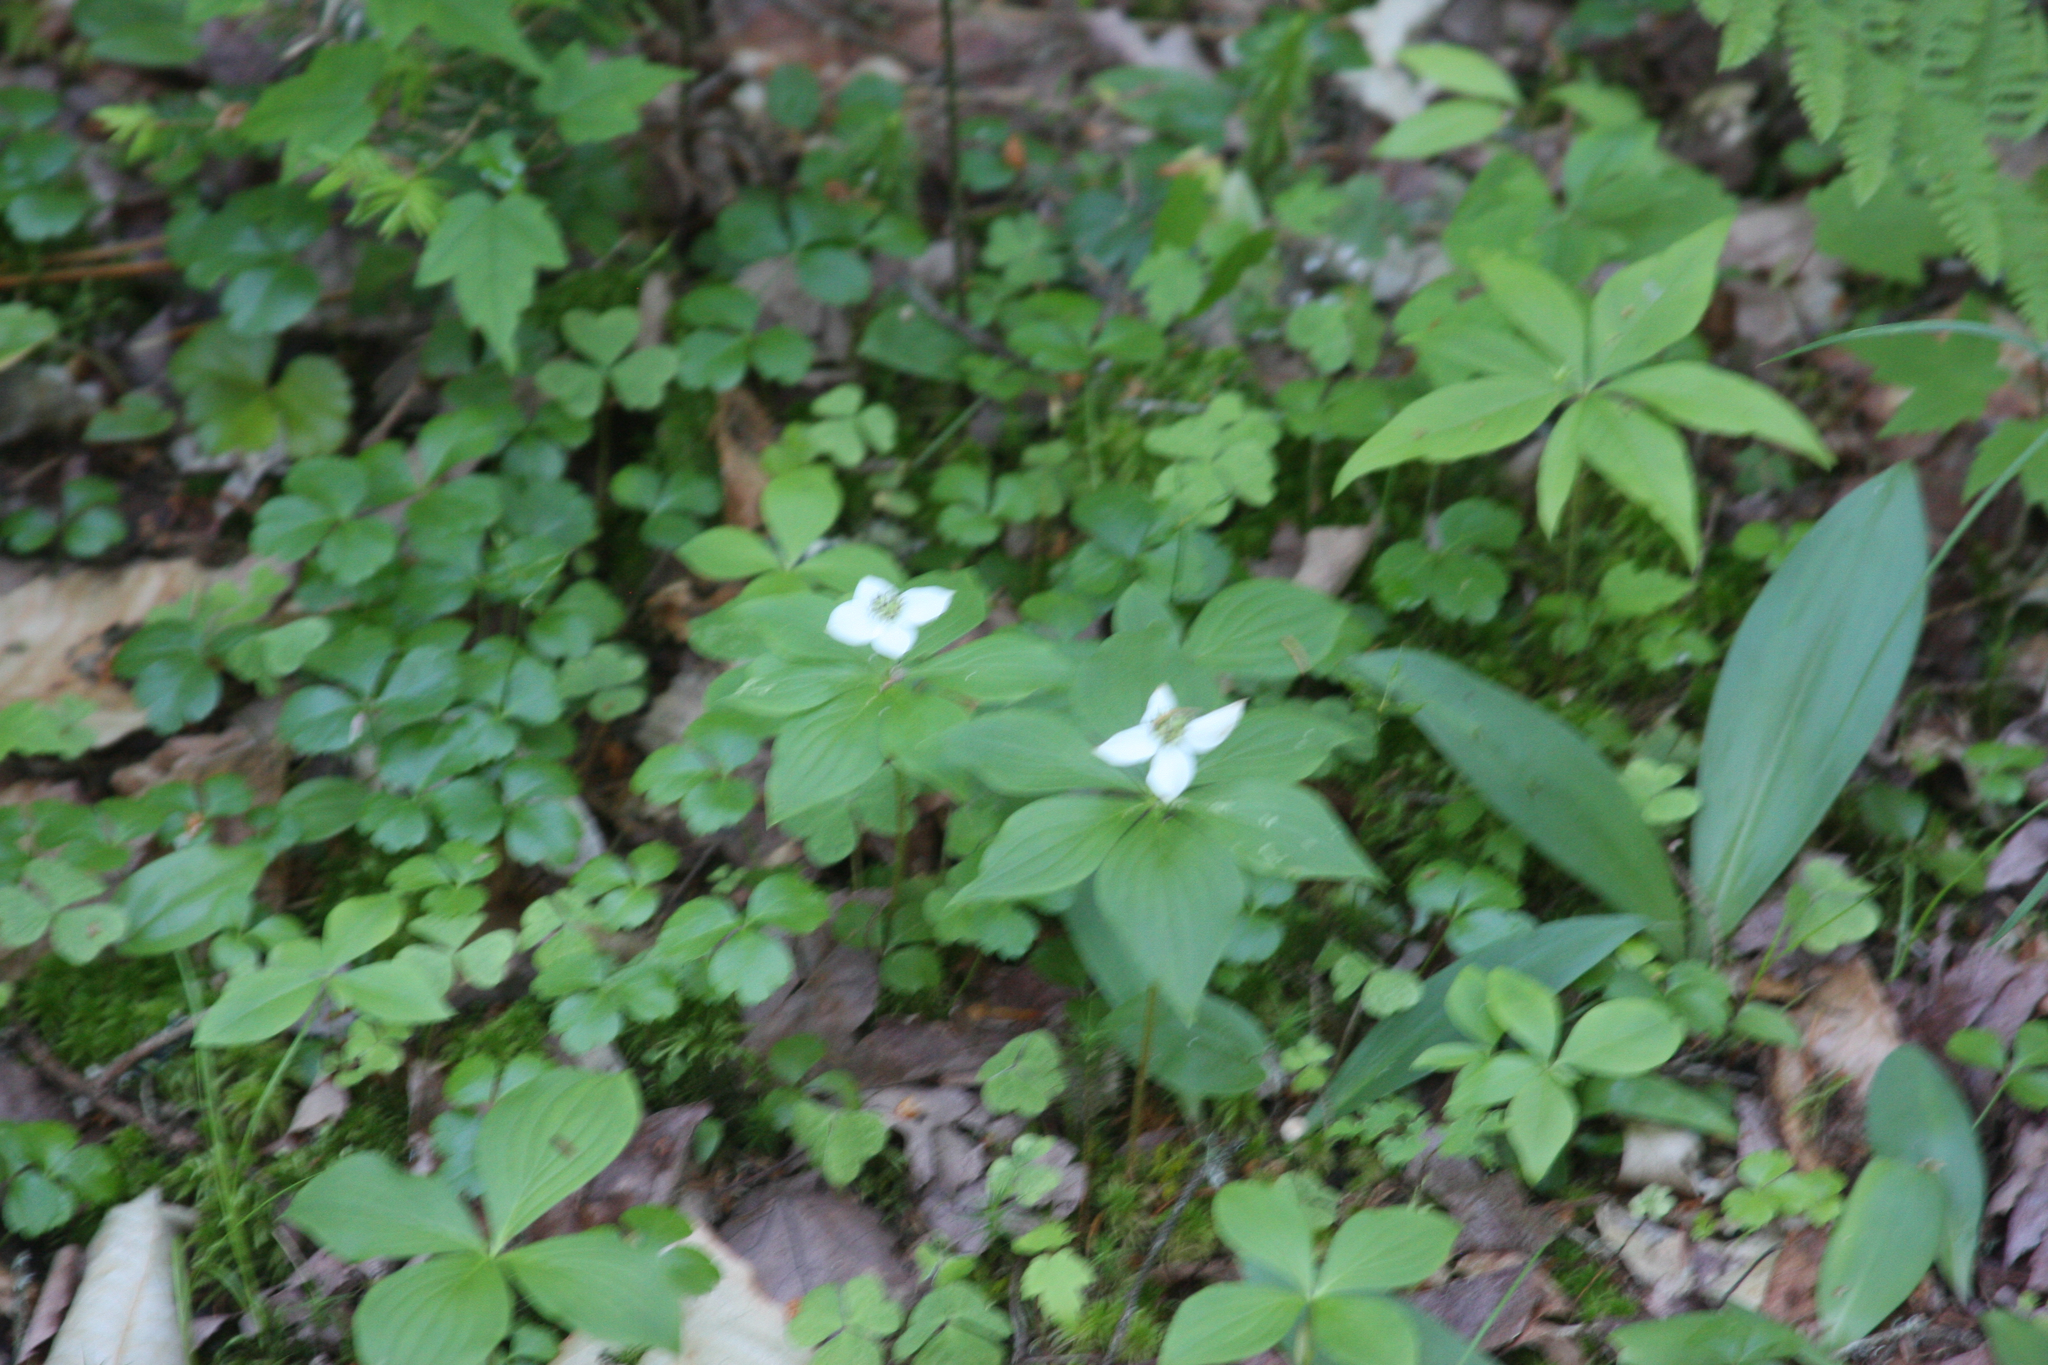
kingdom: Plantae
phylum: Tracheophyta
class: Magnoliopsida
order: Cornales
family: Cornaceae
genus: Cornus
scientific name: Cornus canadensis
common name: Creeping dogwood
